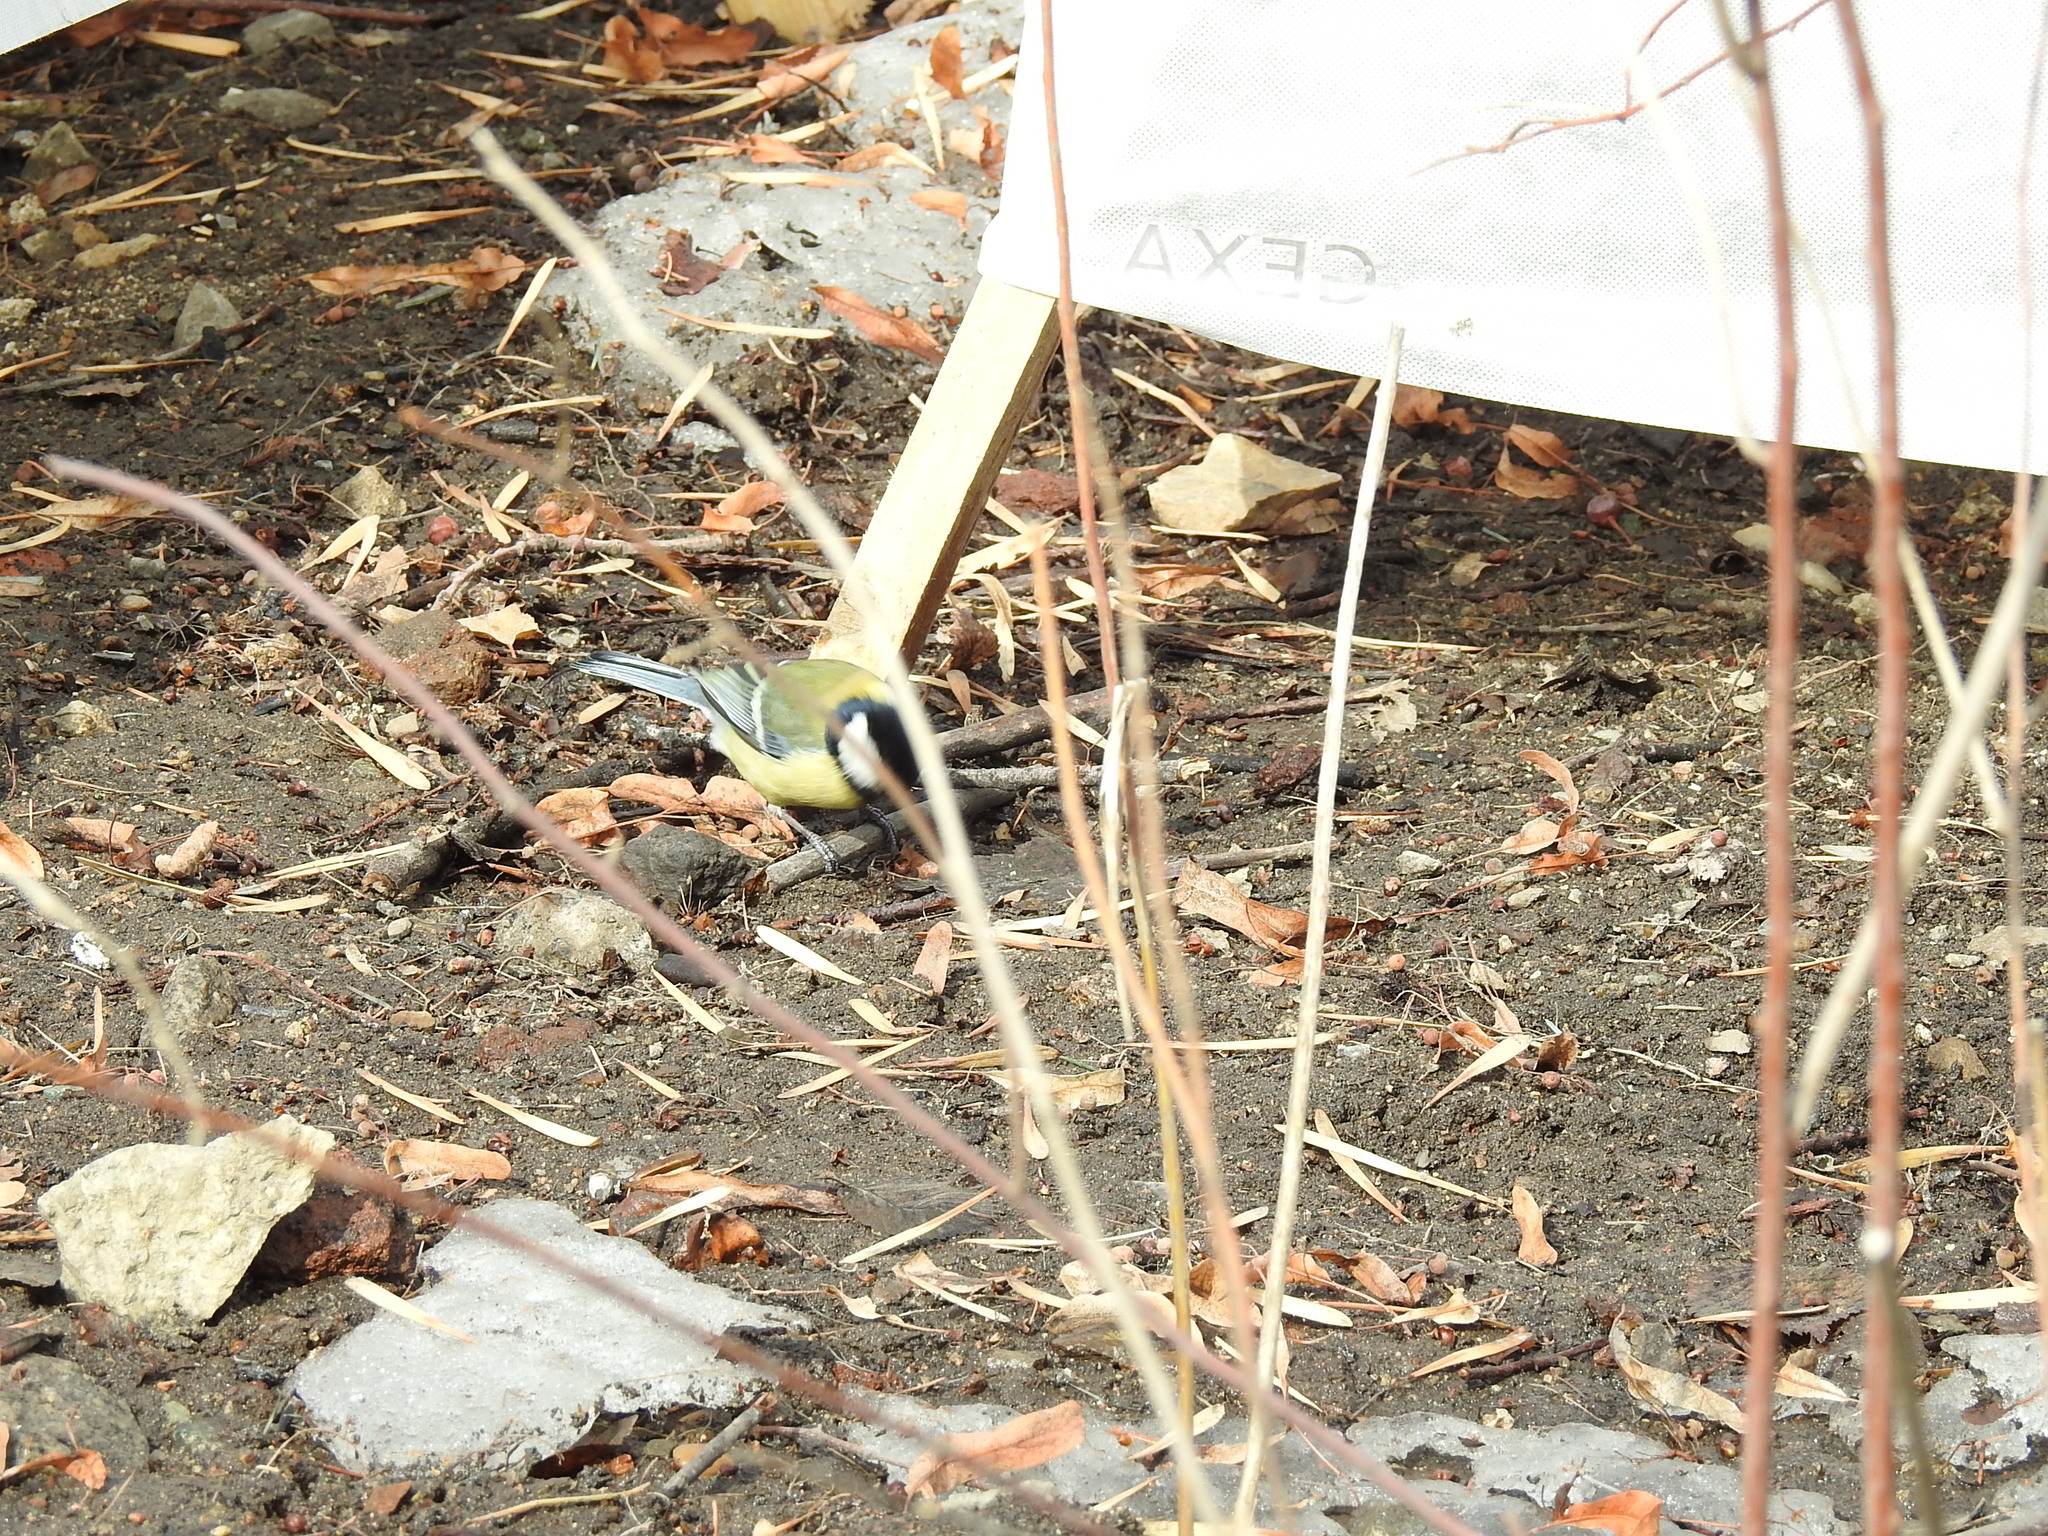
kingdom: Animalia
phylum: Chordata
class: Aves
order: Passeriformes
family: Paridae
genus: Parus
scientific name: Parus major
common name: Great tit
